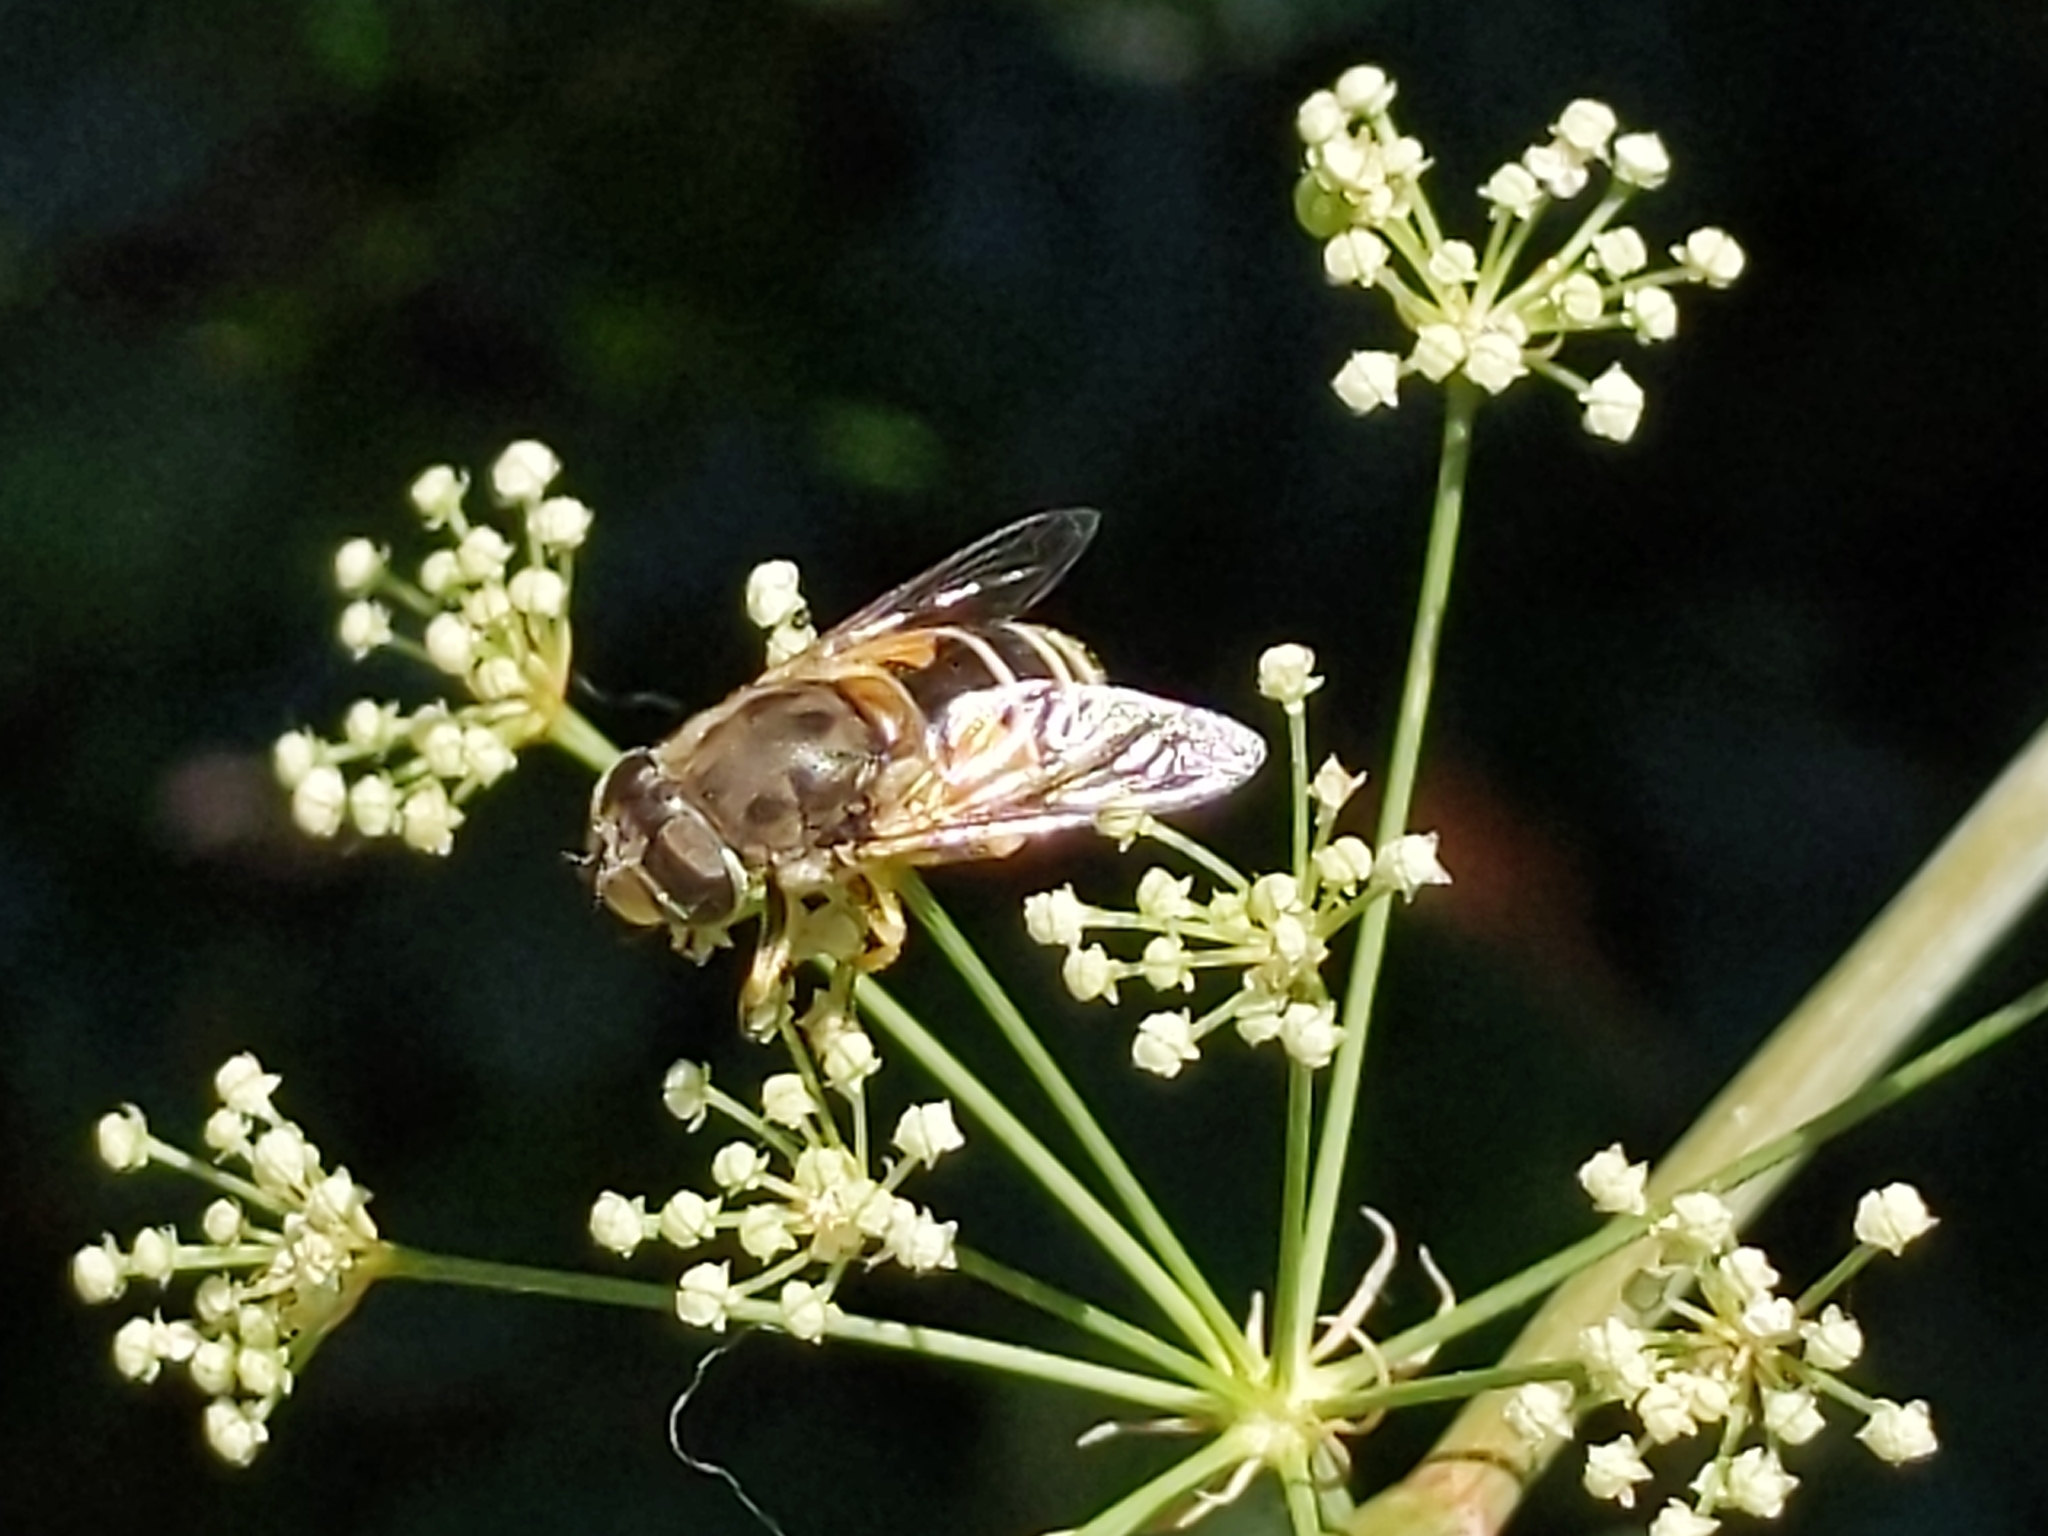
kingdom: Animalia
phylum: Arthropoda
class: Insecta
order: Diptera
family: Syrphidae
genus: Eristalis
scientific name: Eristalis arbustorum
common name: Hover fly
